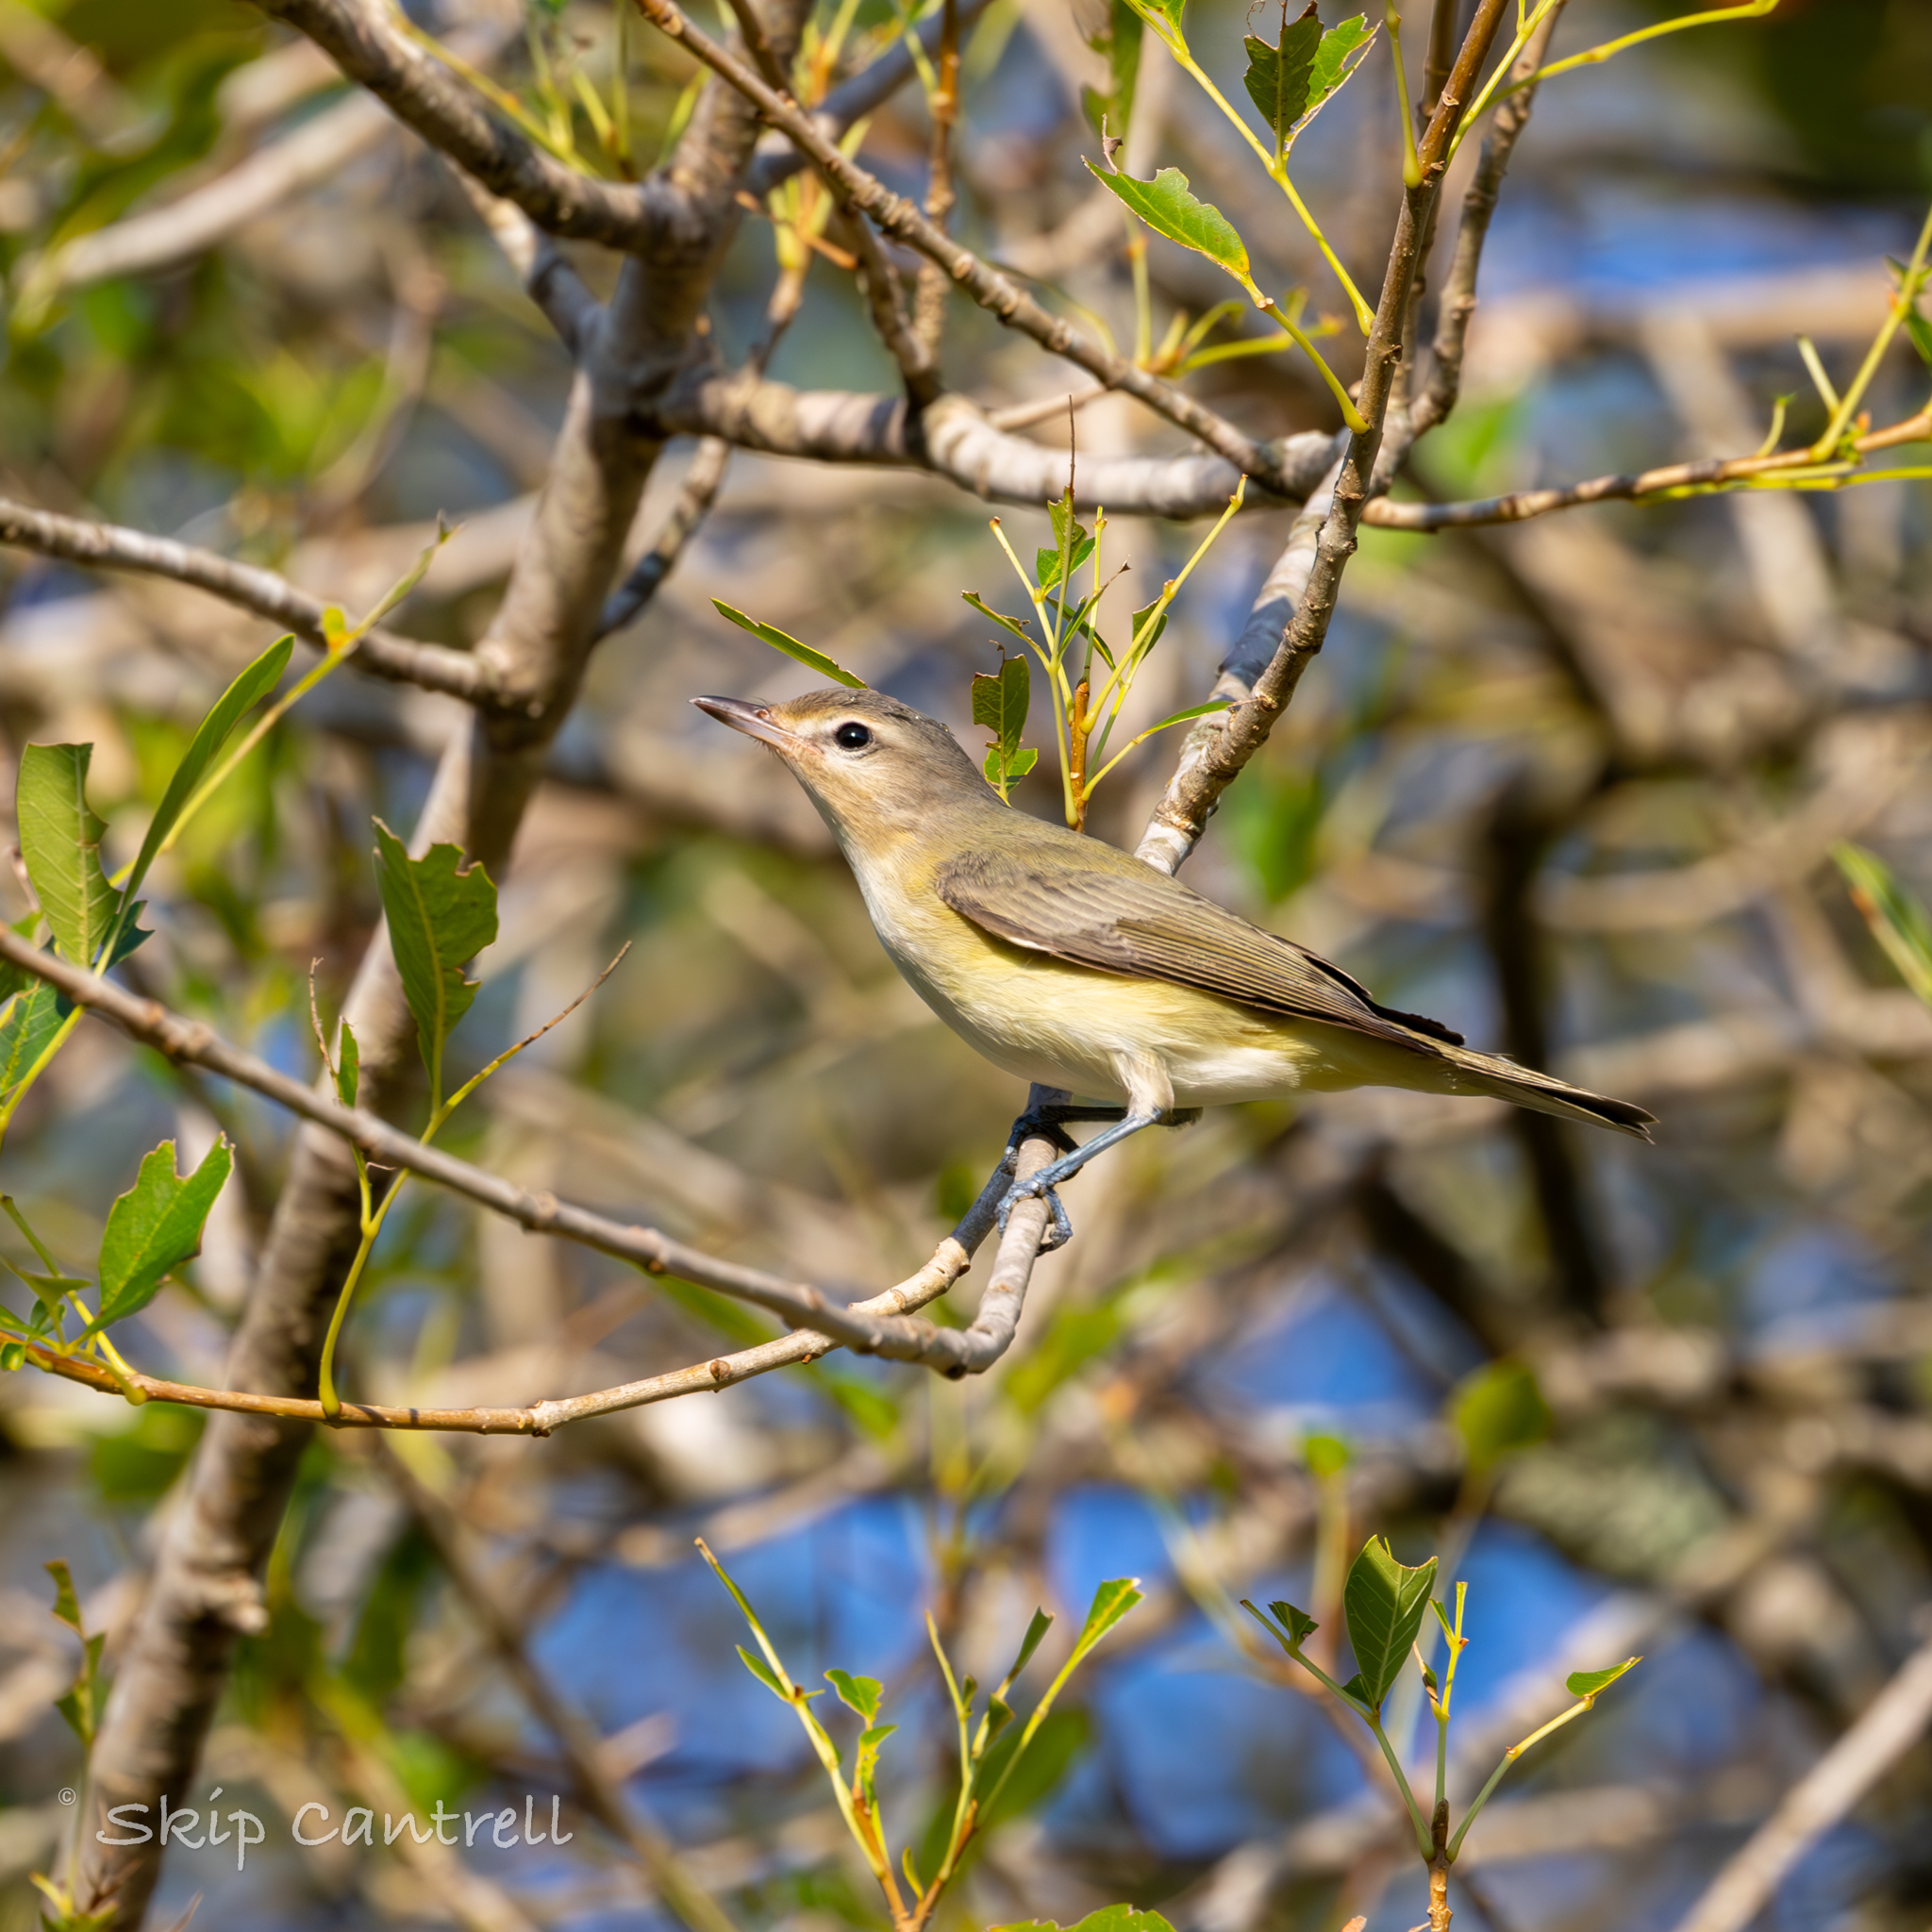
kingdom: Animalia
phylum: Chordata
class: Aves
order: Passeriformes
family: Vireonidae
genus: Vireo
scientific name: Vireo gilvus
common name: Warbling vireo
